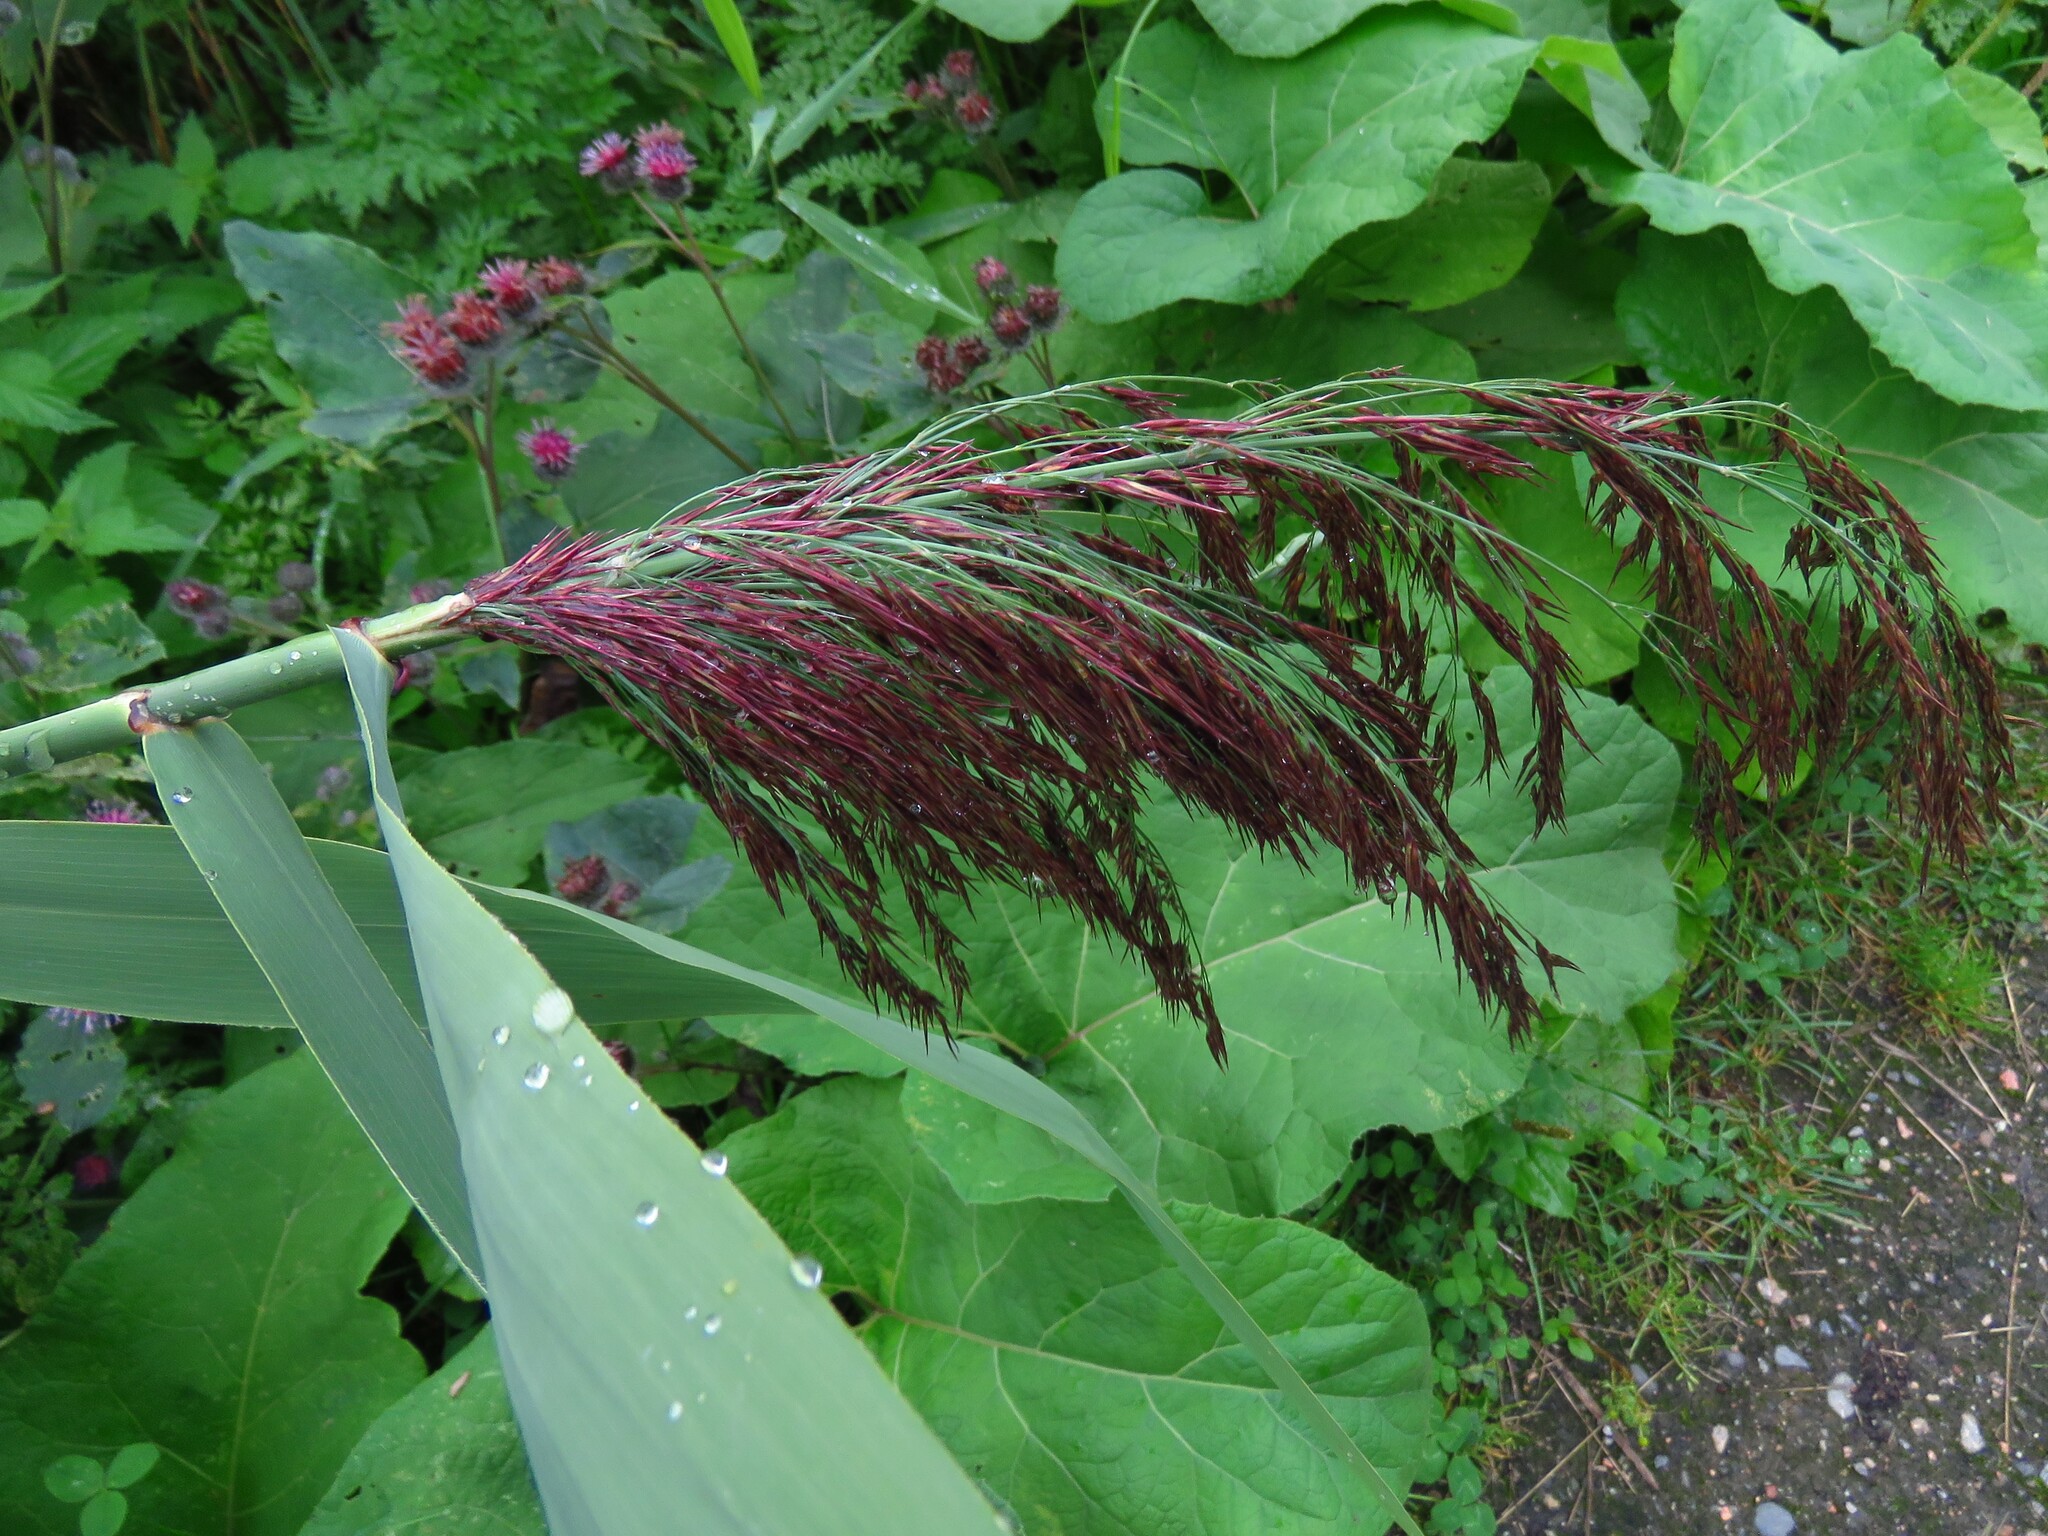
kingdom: Plantae
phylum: Tracheophyta
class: Liliopsida
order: Poales
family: Poaceae
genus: Phragmites
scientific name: Phragmites australis
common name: Common reed
